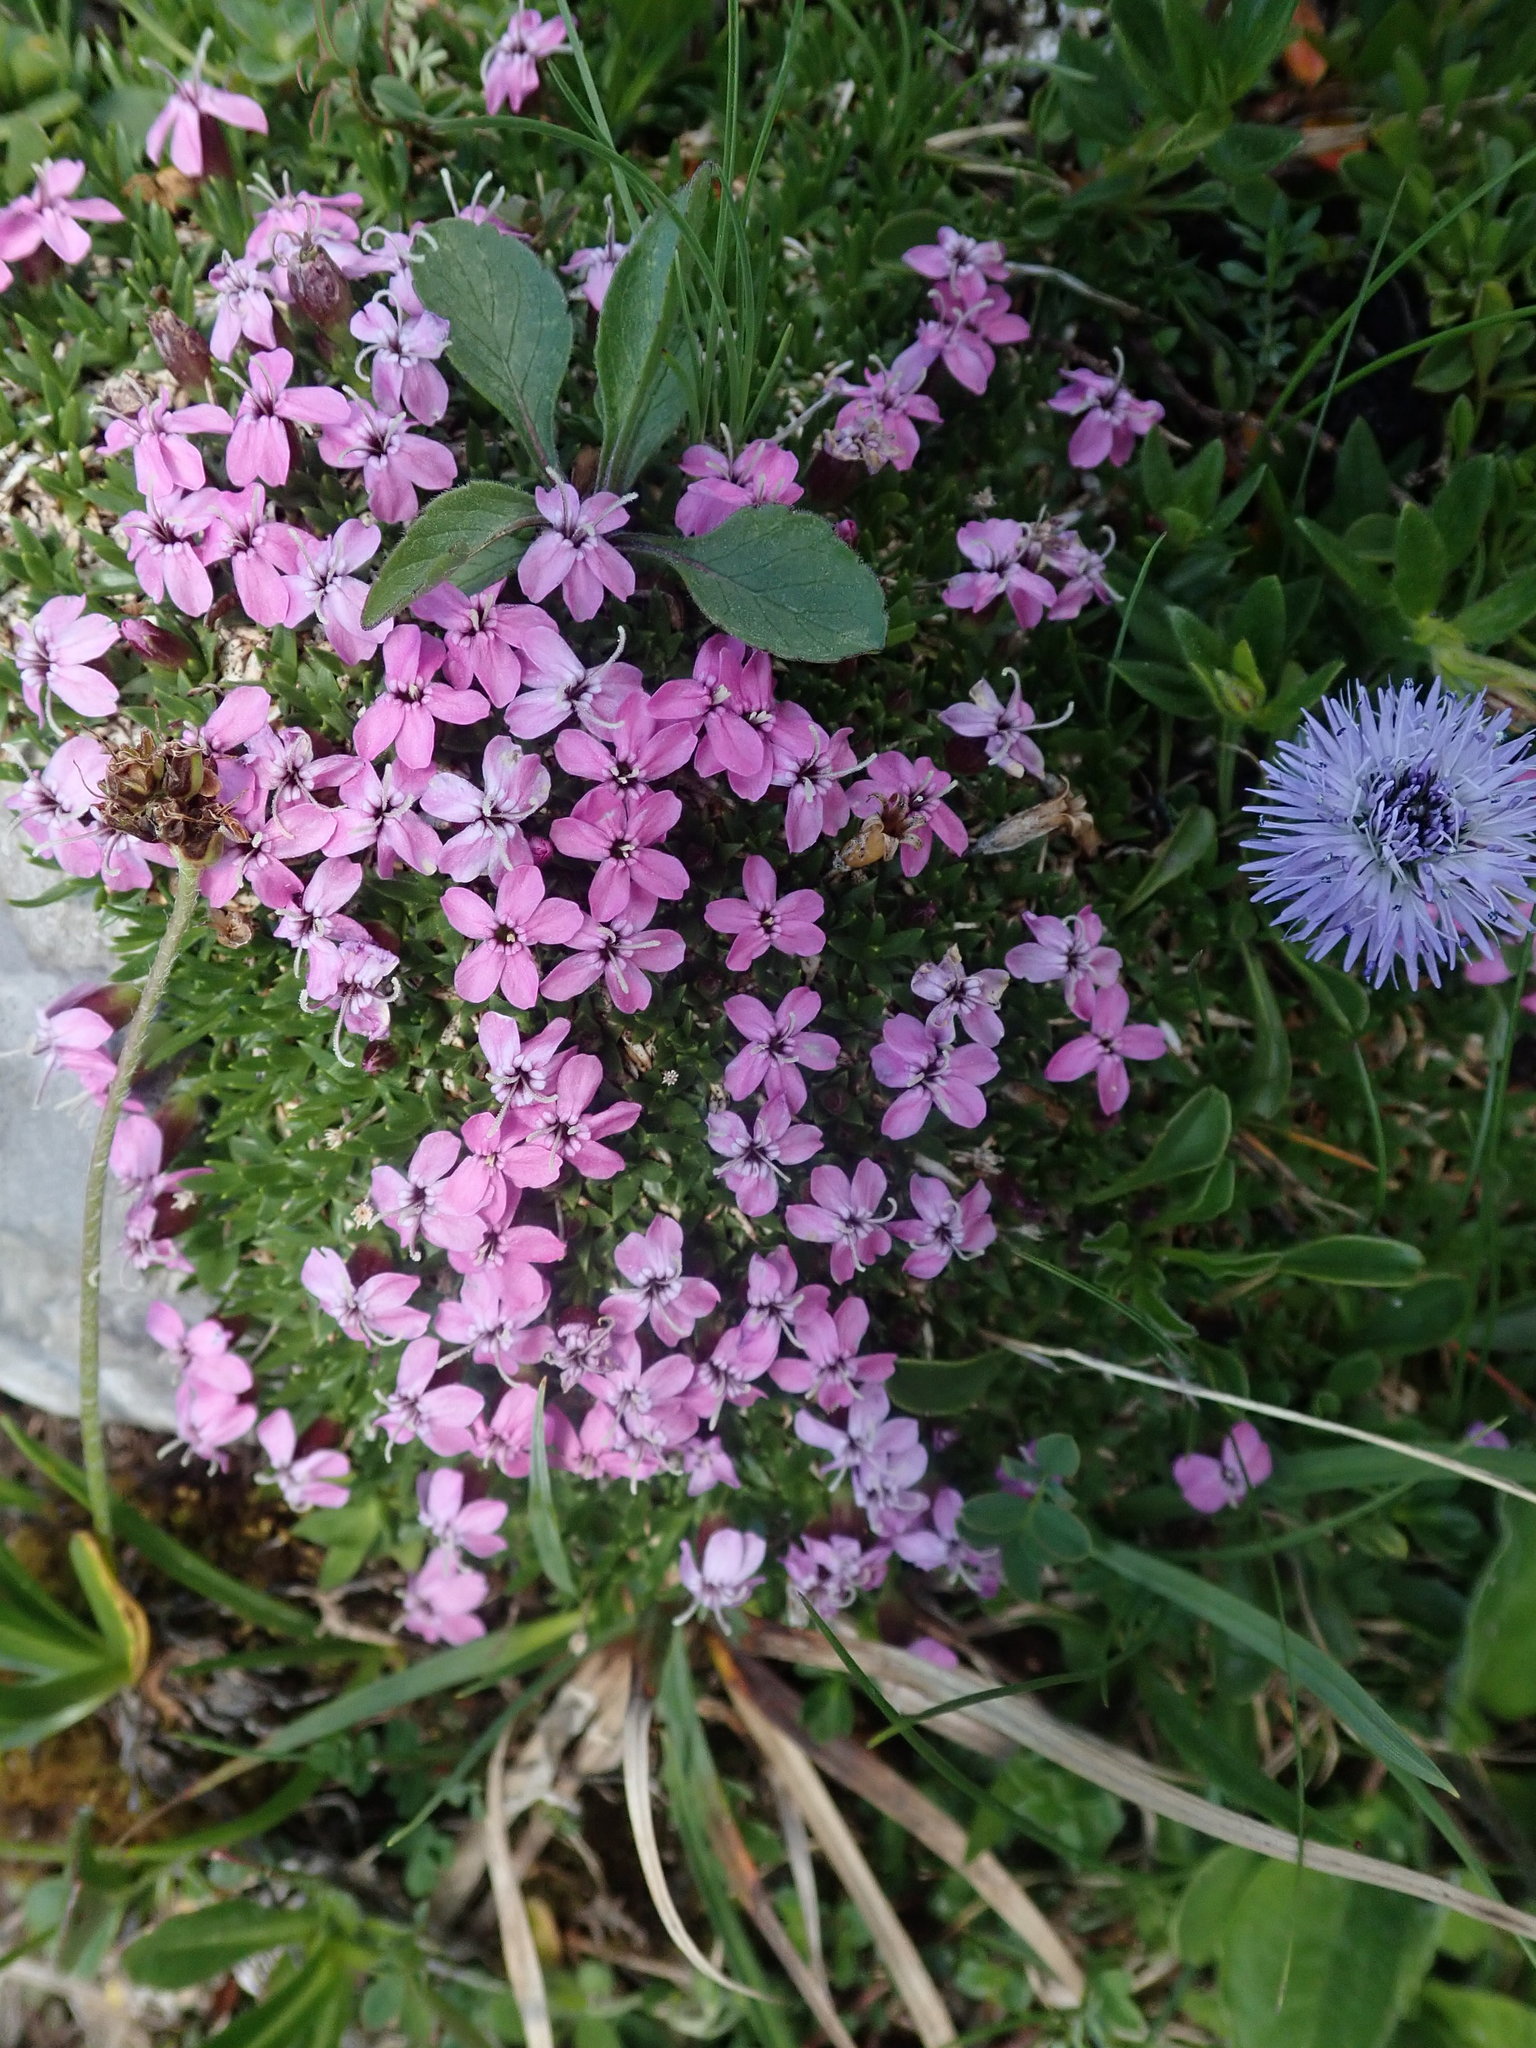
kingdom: Plantae
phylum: Tracheophyta
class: Magnoliopsida
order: Caryophyllales
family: Caryophyllaceae
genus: Silene
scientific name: Silene acaulis
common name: Moss campion
